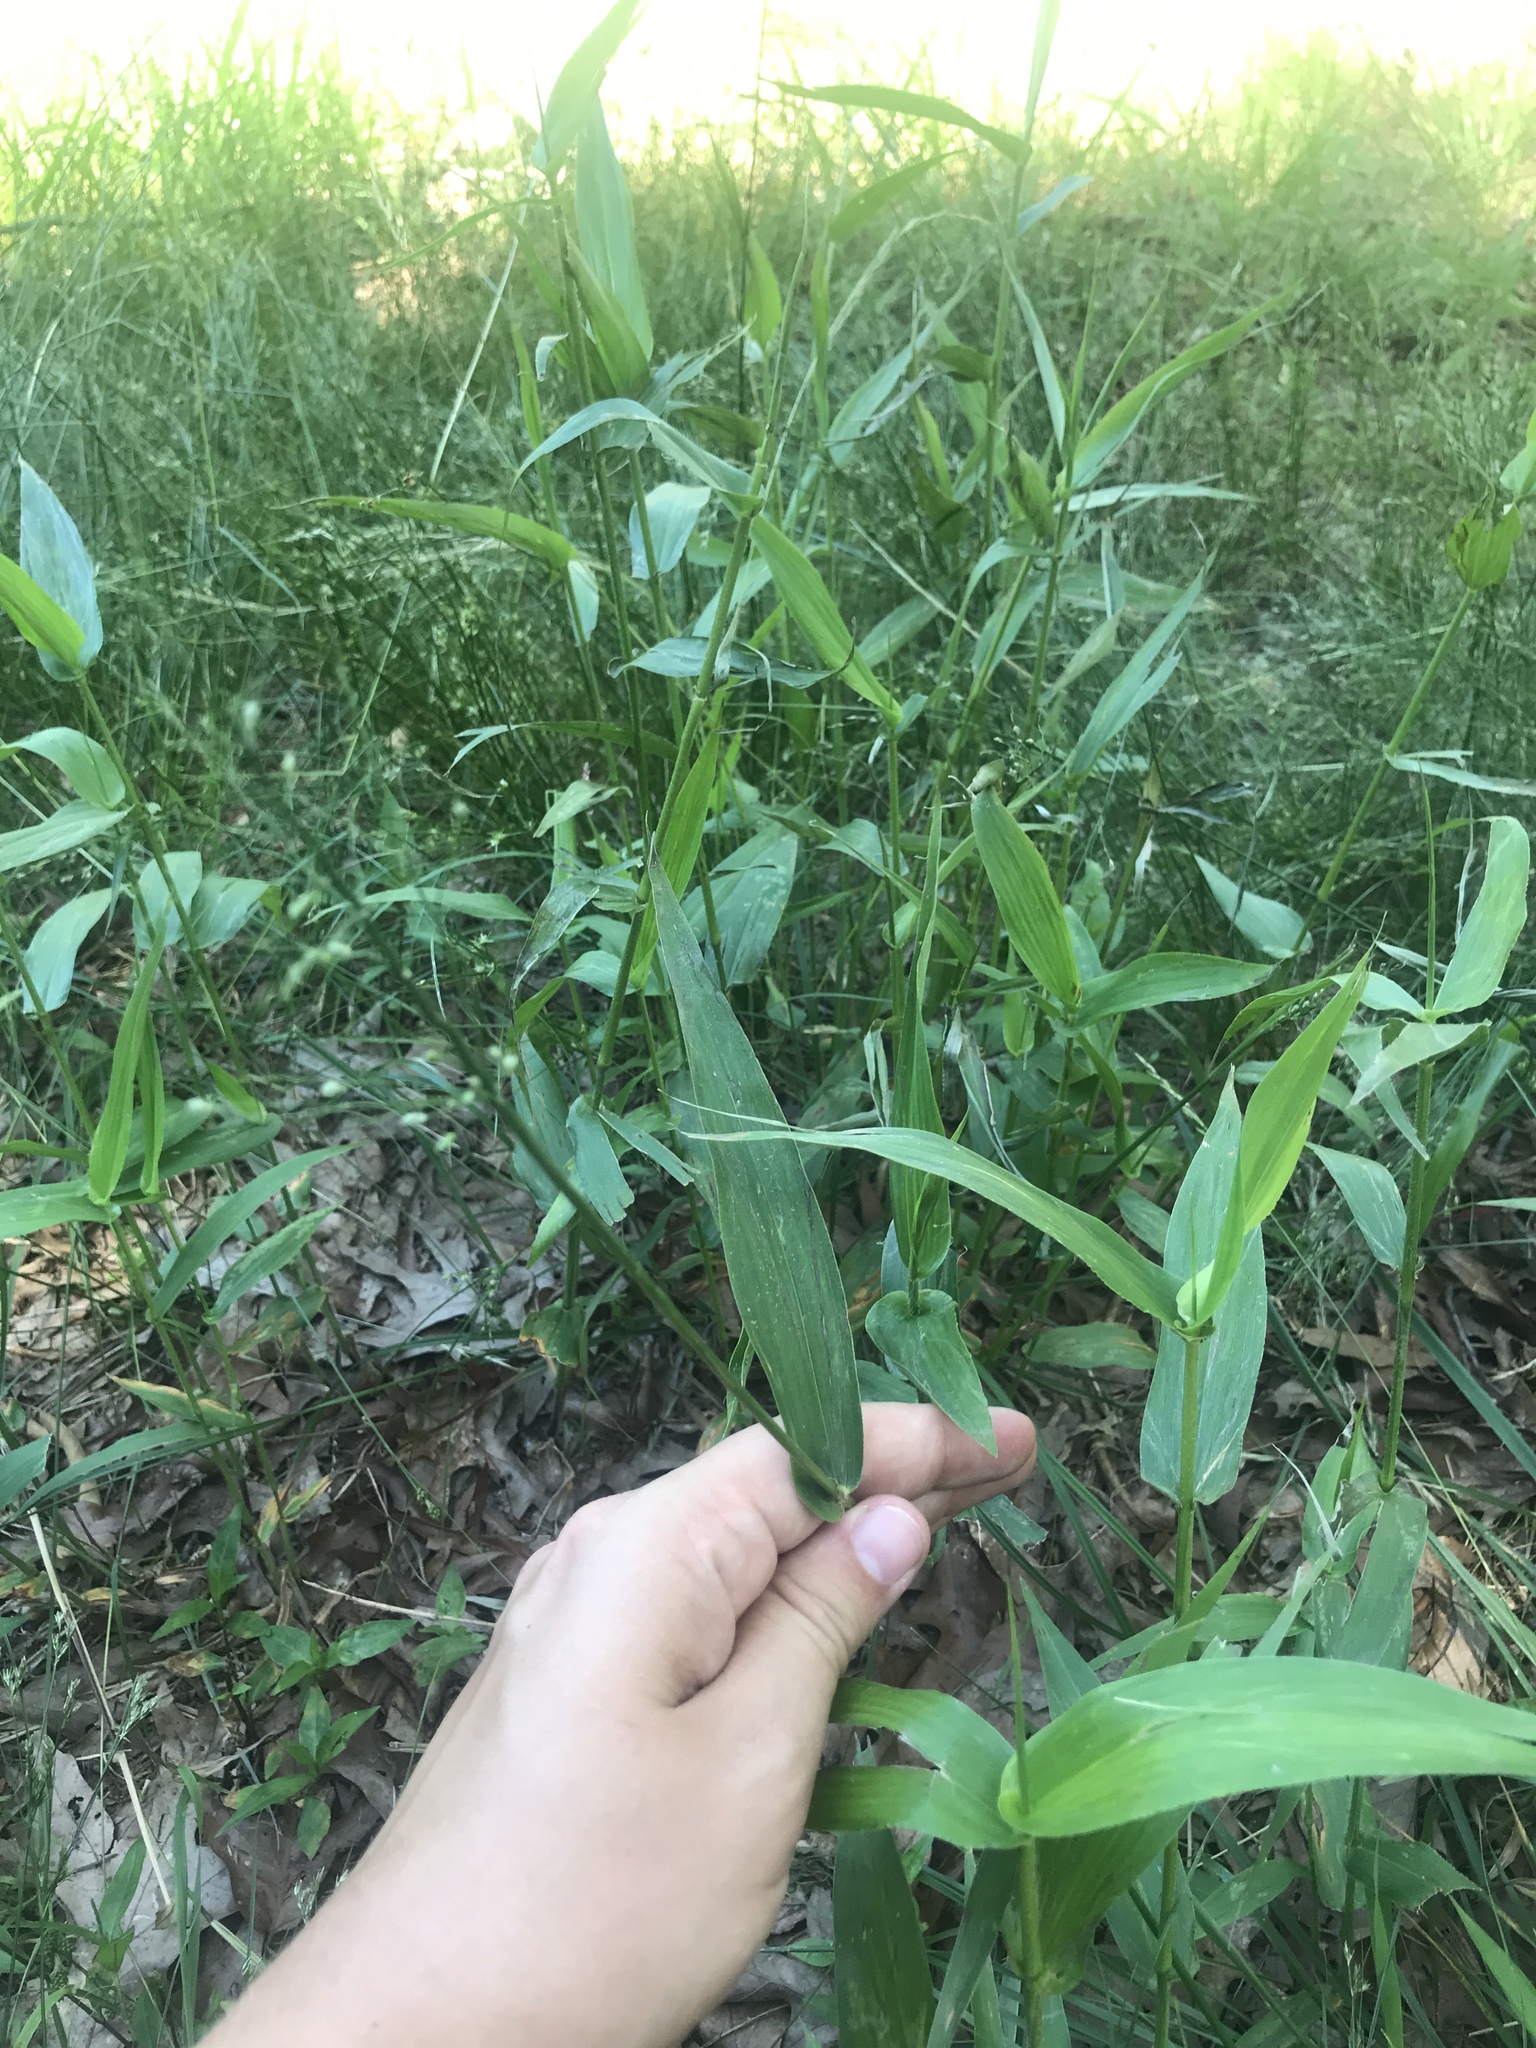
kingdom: Plantae
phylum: Tracheophyta
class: Liliopsida
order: Poales
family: Poaceae
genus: Dichanthelium
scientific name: Dichanthelium clandestinum
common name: Deer-tongue grass
